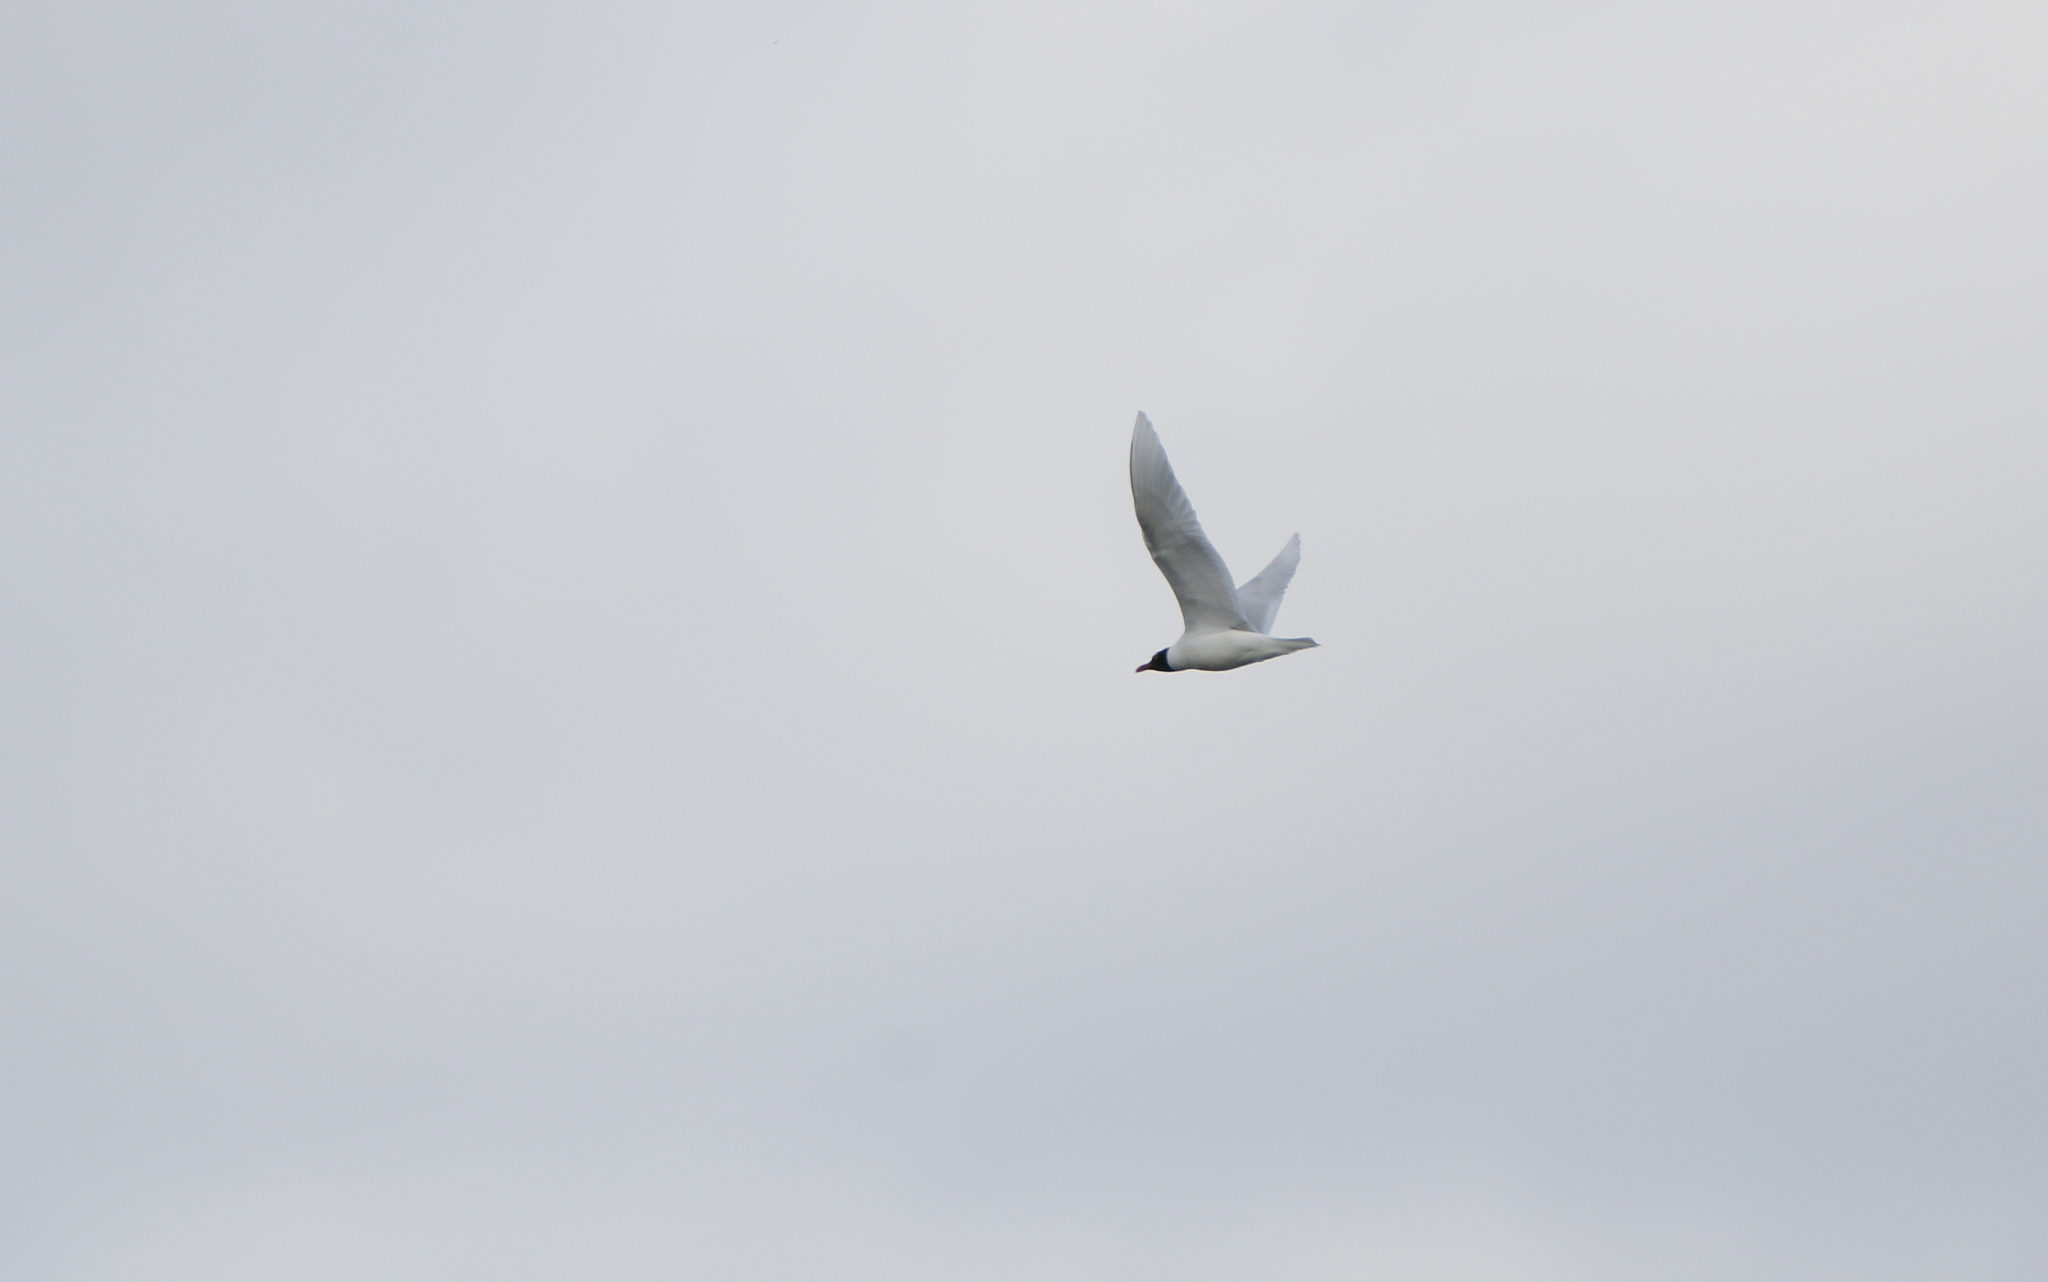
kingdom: Animalia
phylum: Chordata
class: Aves
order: Charadriiformes
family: Laridae
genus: Ichthyaetus
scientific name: Ichthyaetus melanocephalus
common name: Mediterranean gull
